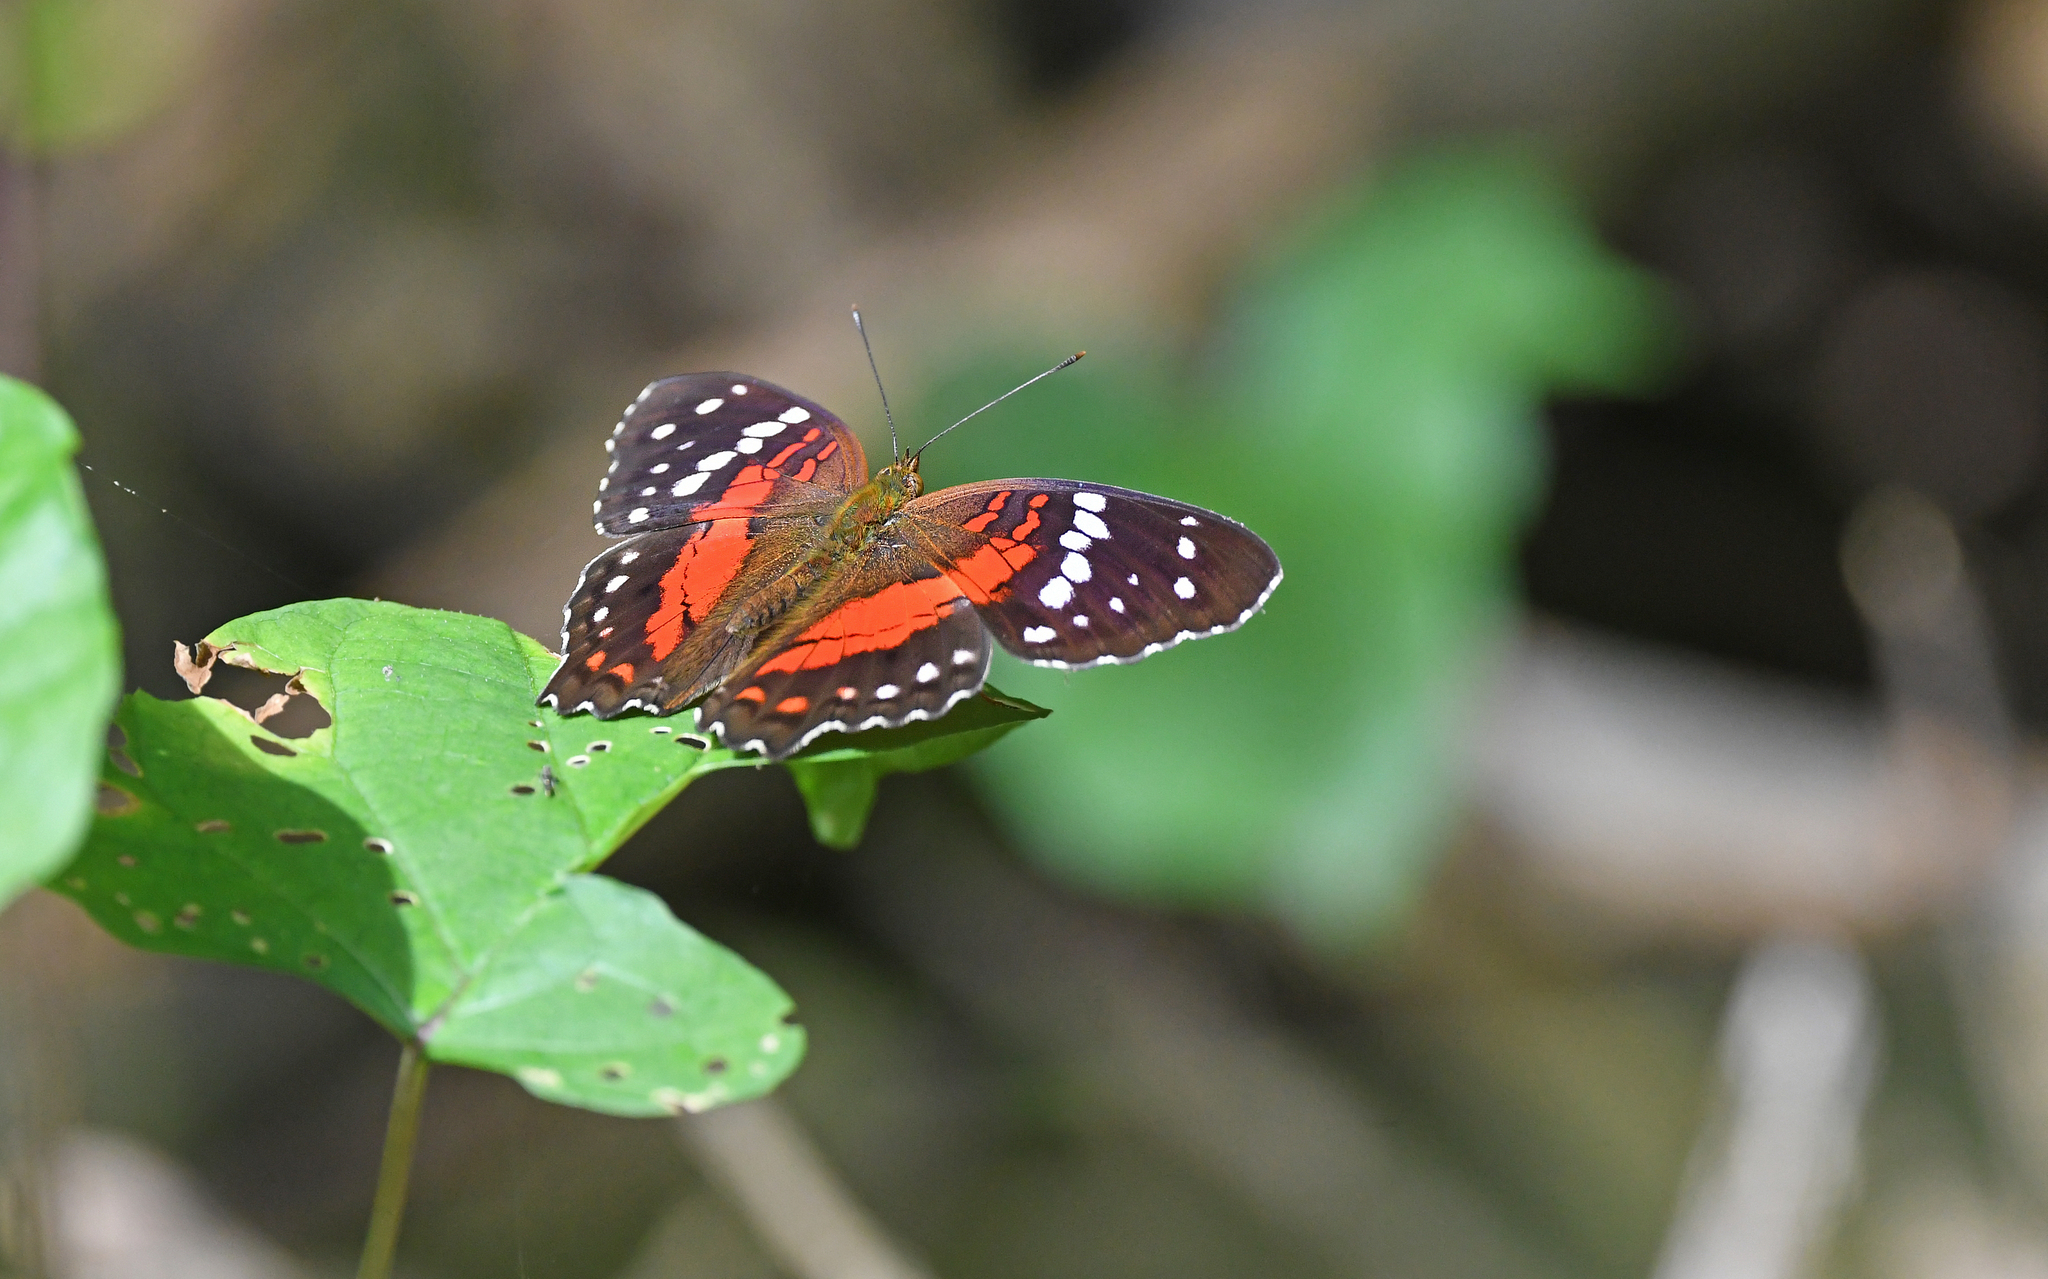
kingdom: Animalia
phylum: Arthropoda
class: Insecta
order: Lepidoptera
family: Nymphalidae
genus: Anartia
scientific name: Anartia amathea
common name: Red peacock
